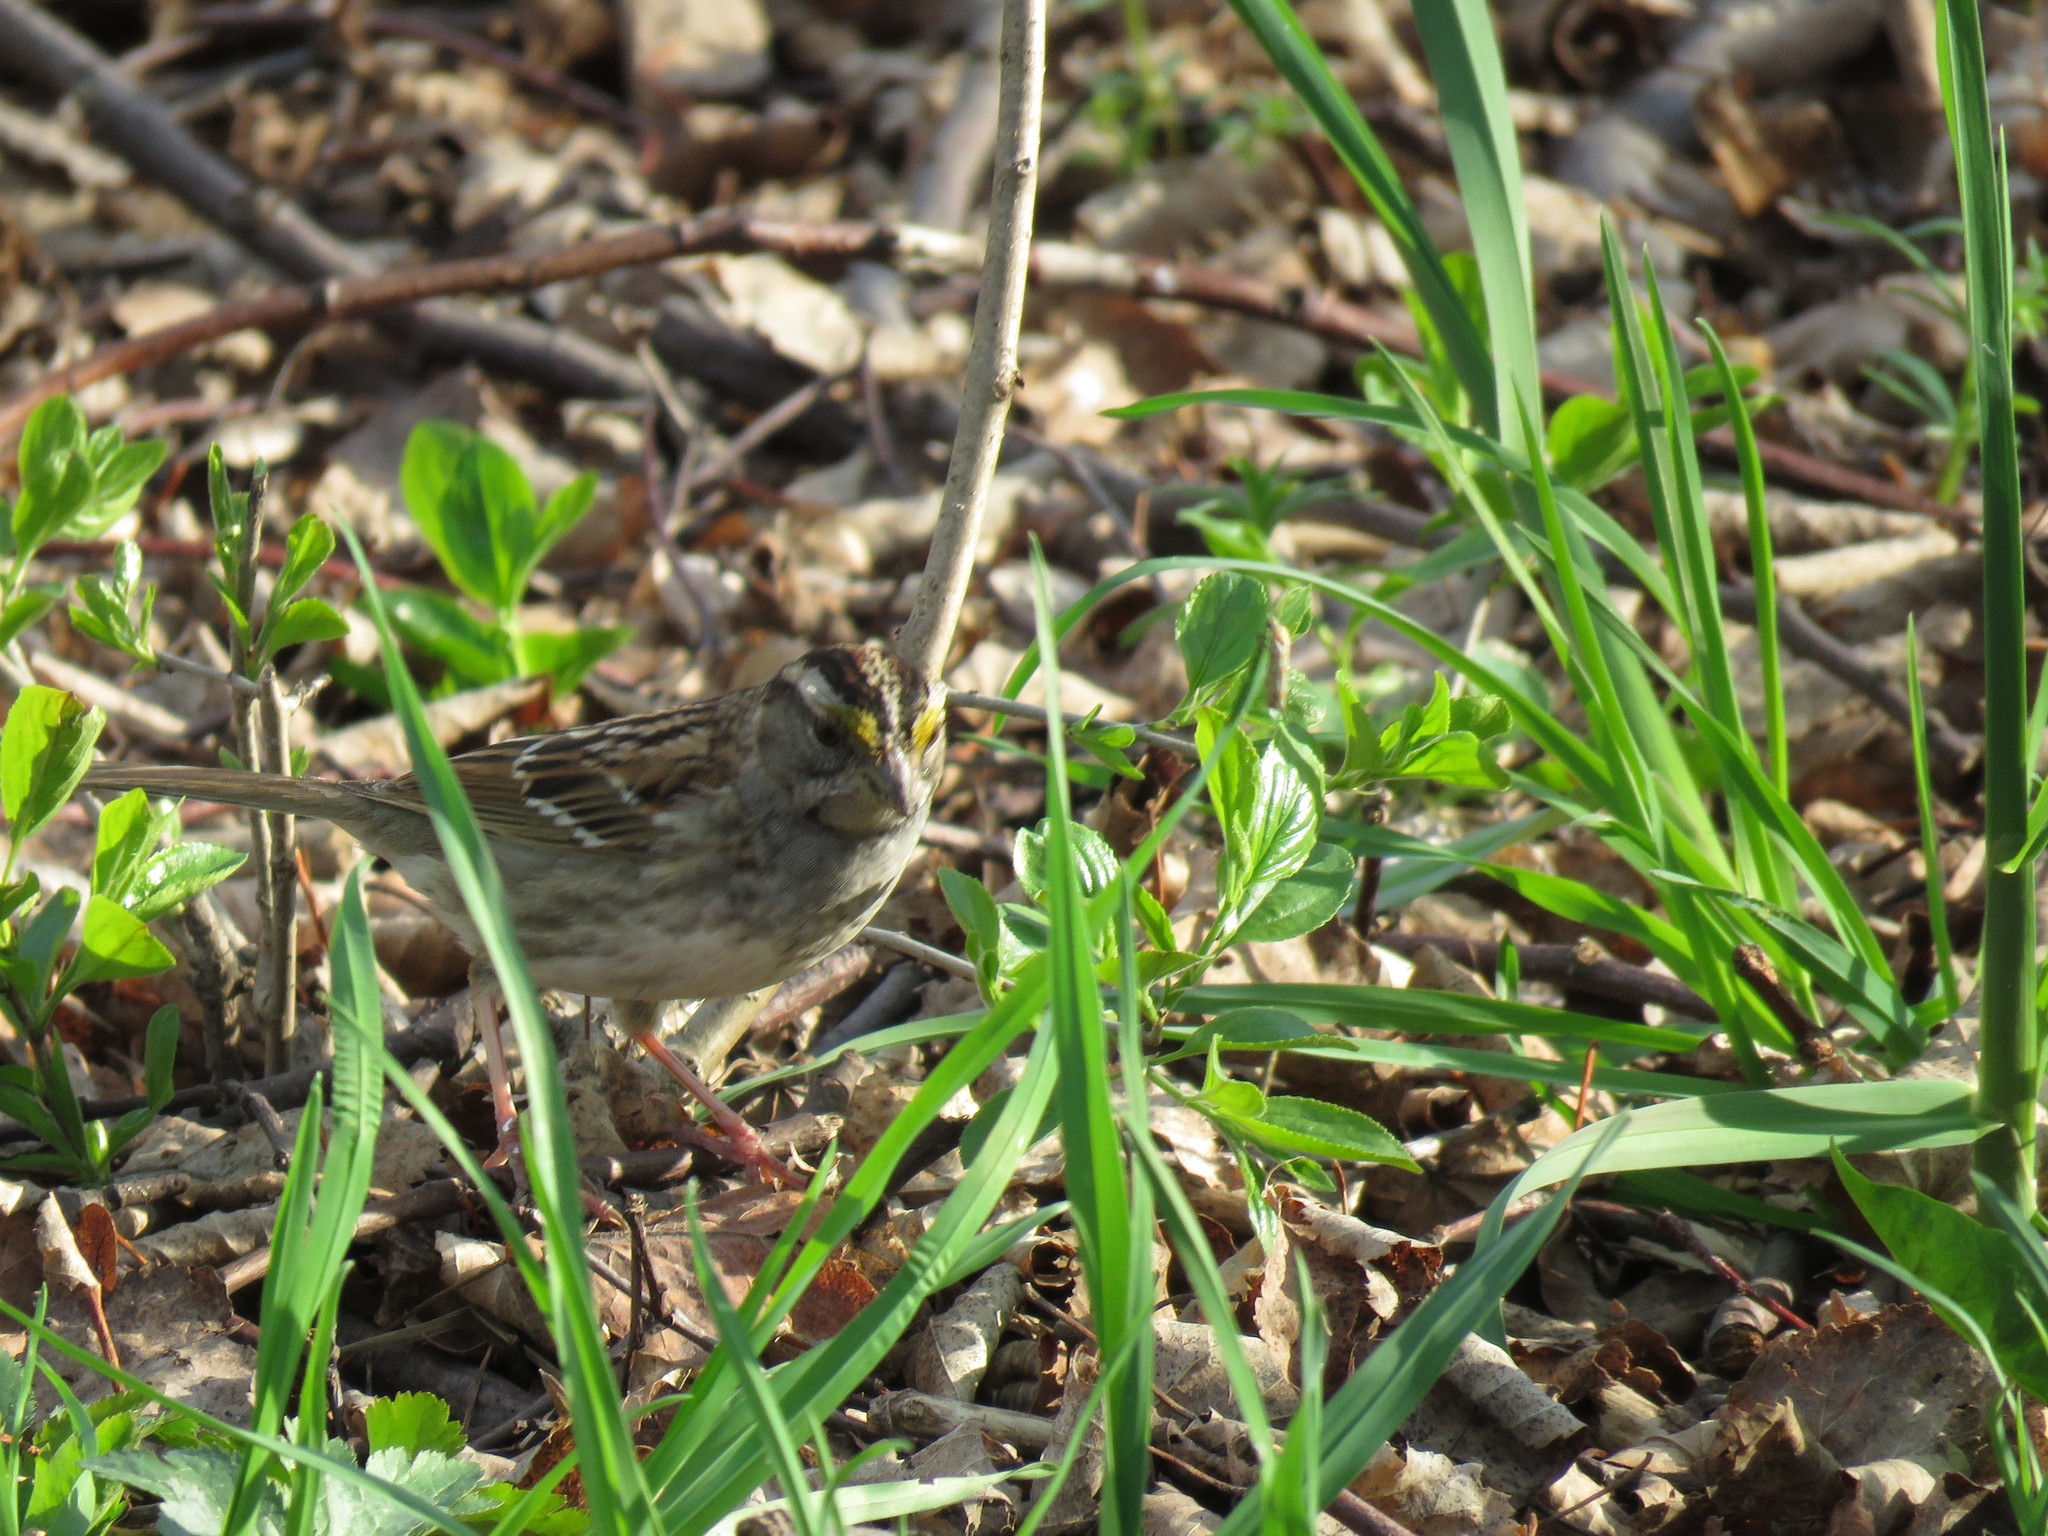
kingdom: Animalia
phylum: Chordata
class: Aves
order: Passeriformes
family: Passerellidae
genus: Zonotrichia
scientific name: Zonotrichia albicollis
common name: White-throated sparrow
